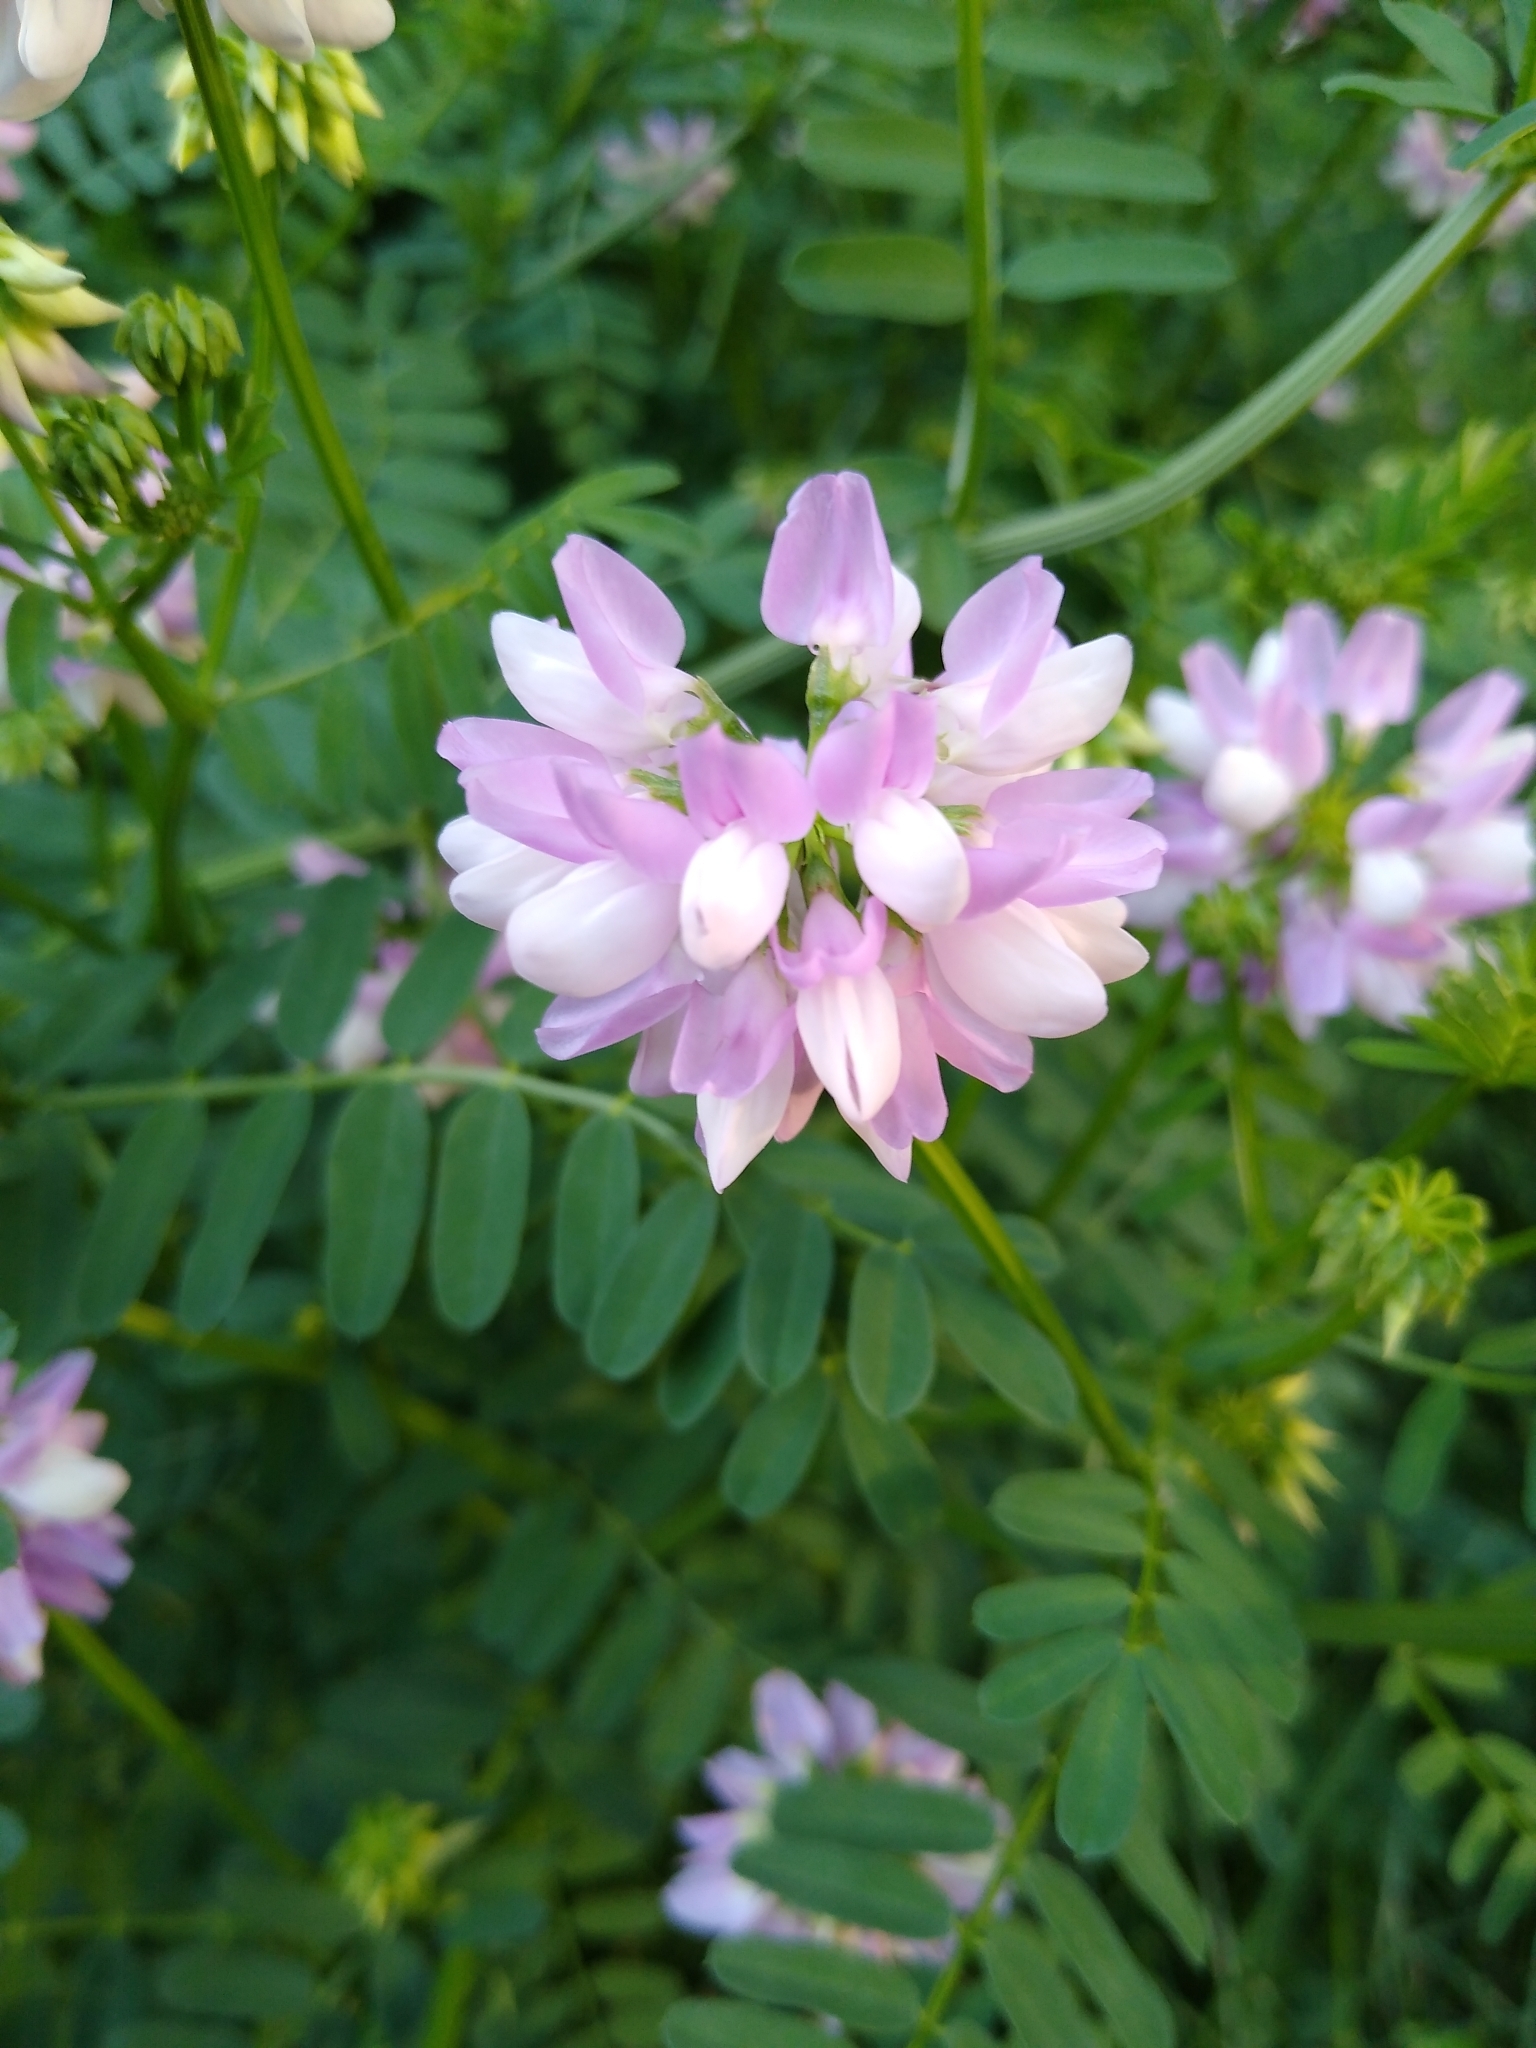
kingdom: Plantae
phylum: Tracheophyta
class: Magnoliopsida
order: Fabales
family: Fabaceae
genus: Coronilla
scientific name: Coronilla varia
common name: Crownvetch
